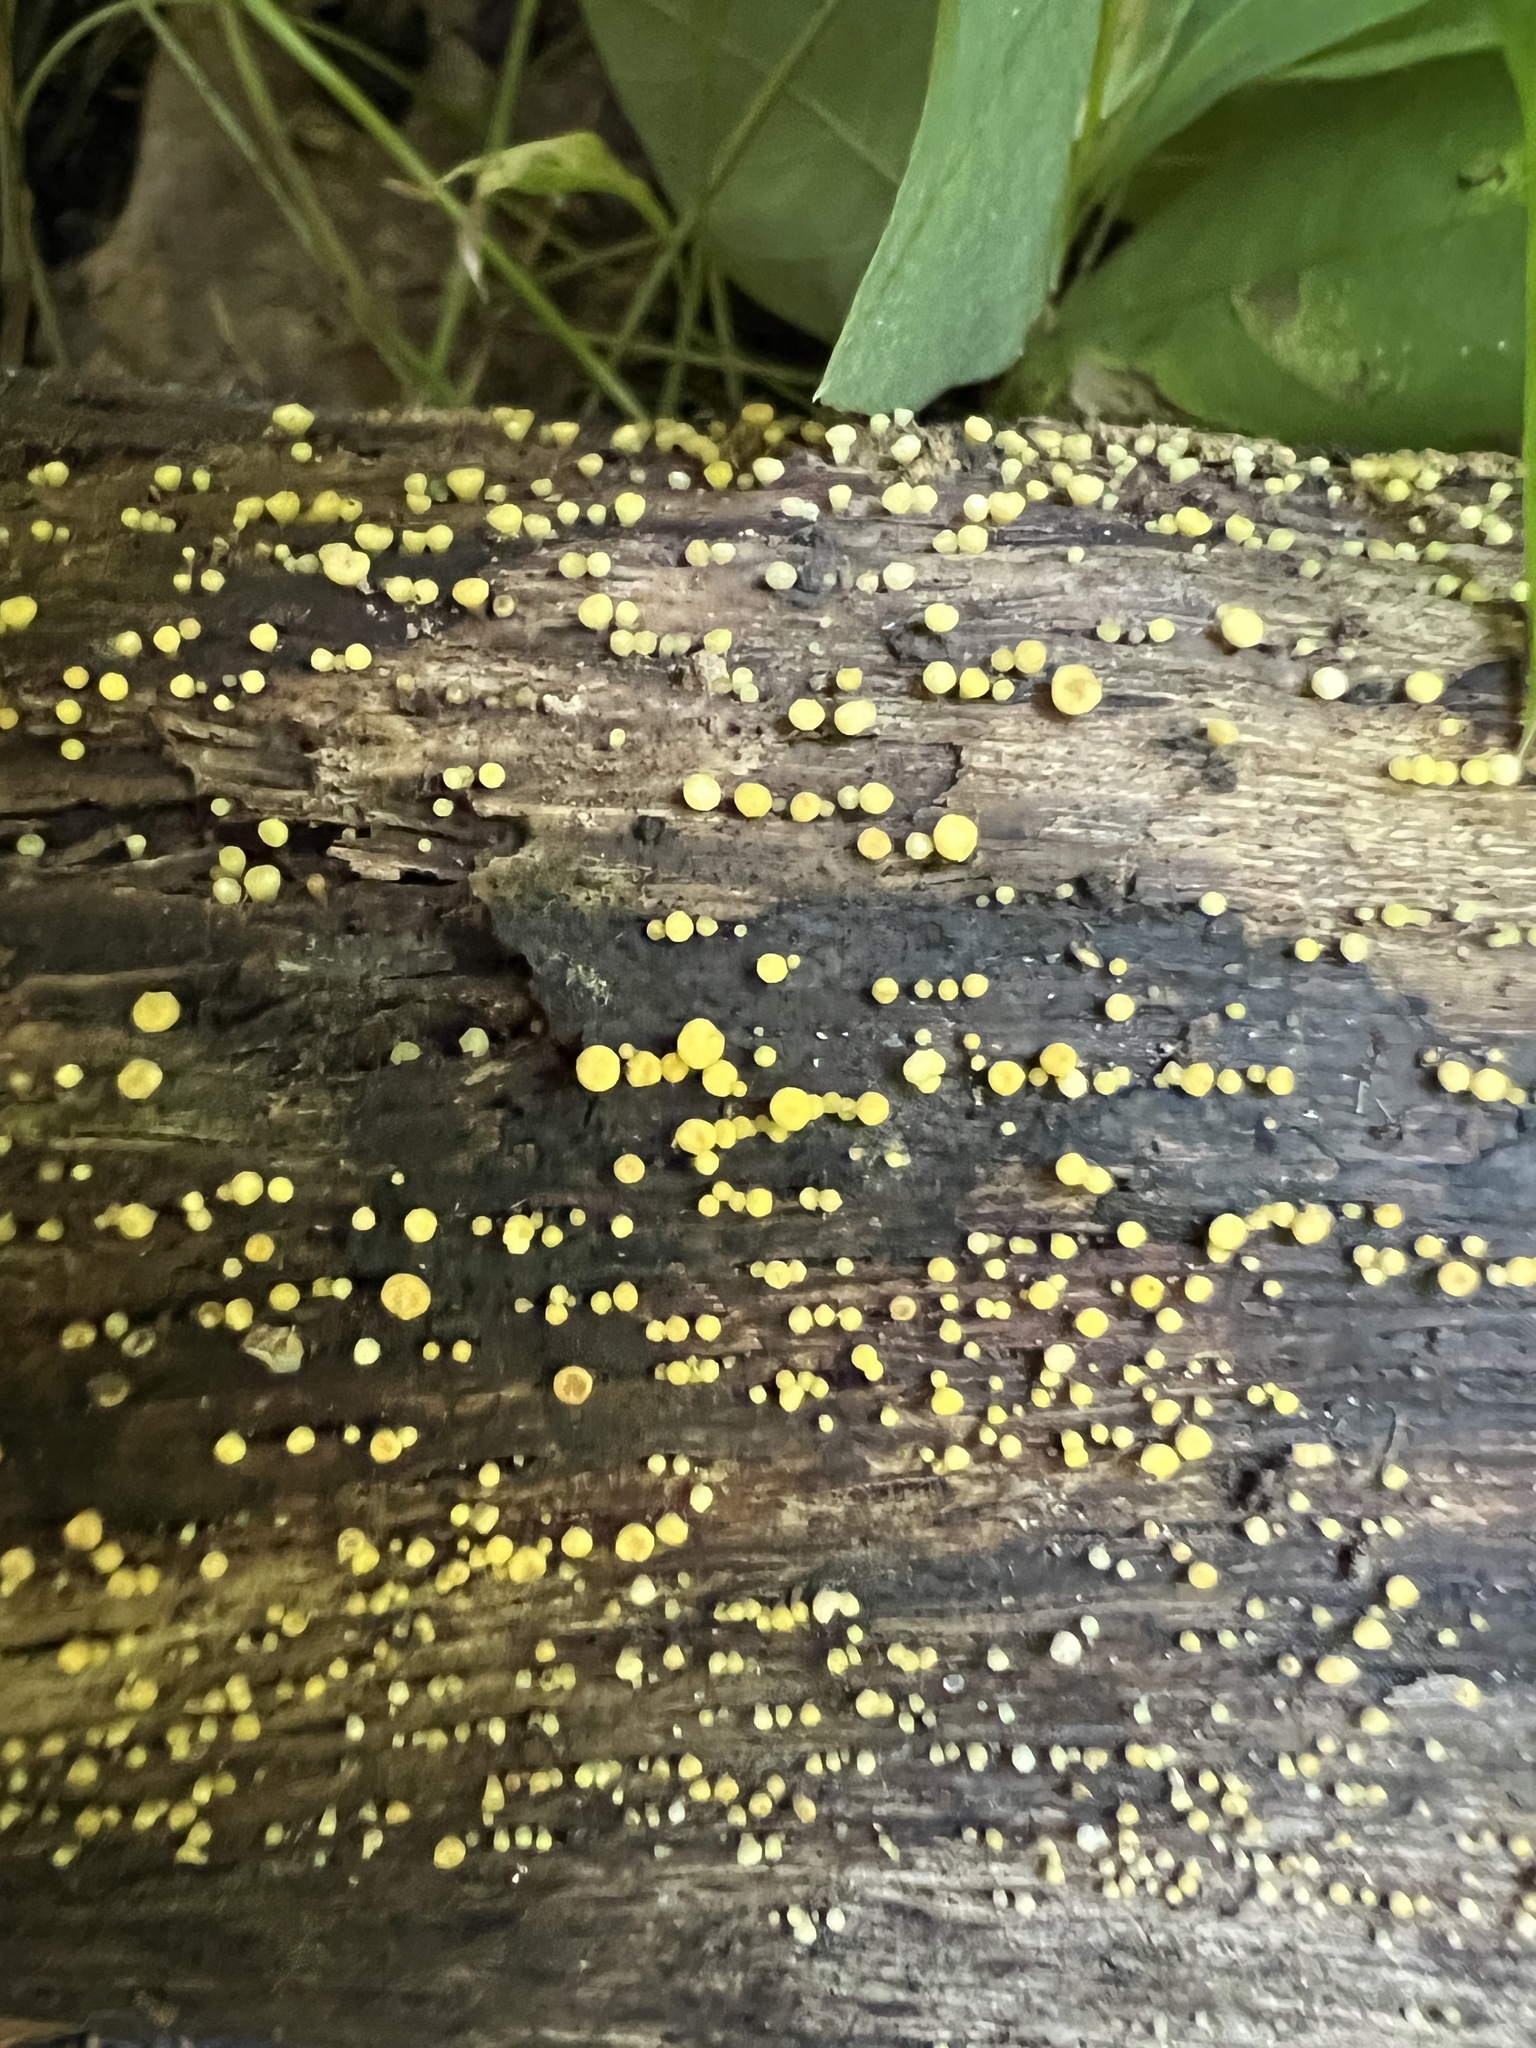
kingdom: Fungi
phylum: Ascomycota
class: Leotiomycetes
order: Helotiales
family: Pezizellaceae
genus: Calycina
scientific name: Calycina citrina
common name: Yellow fairy cups
